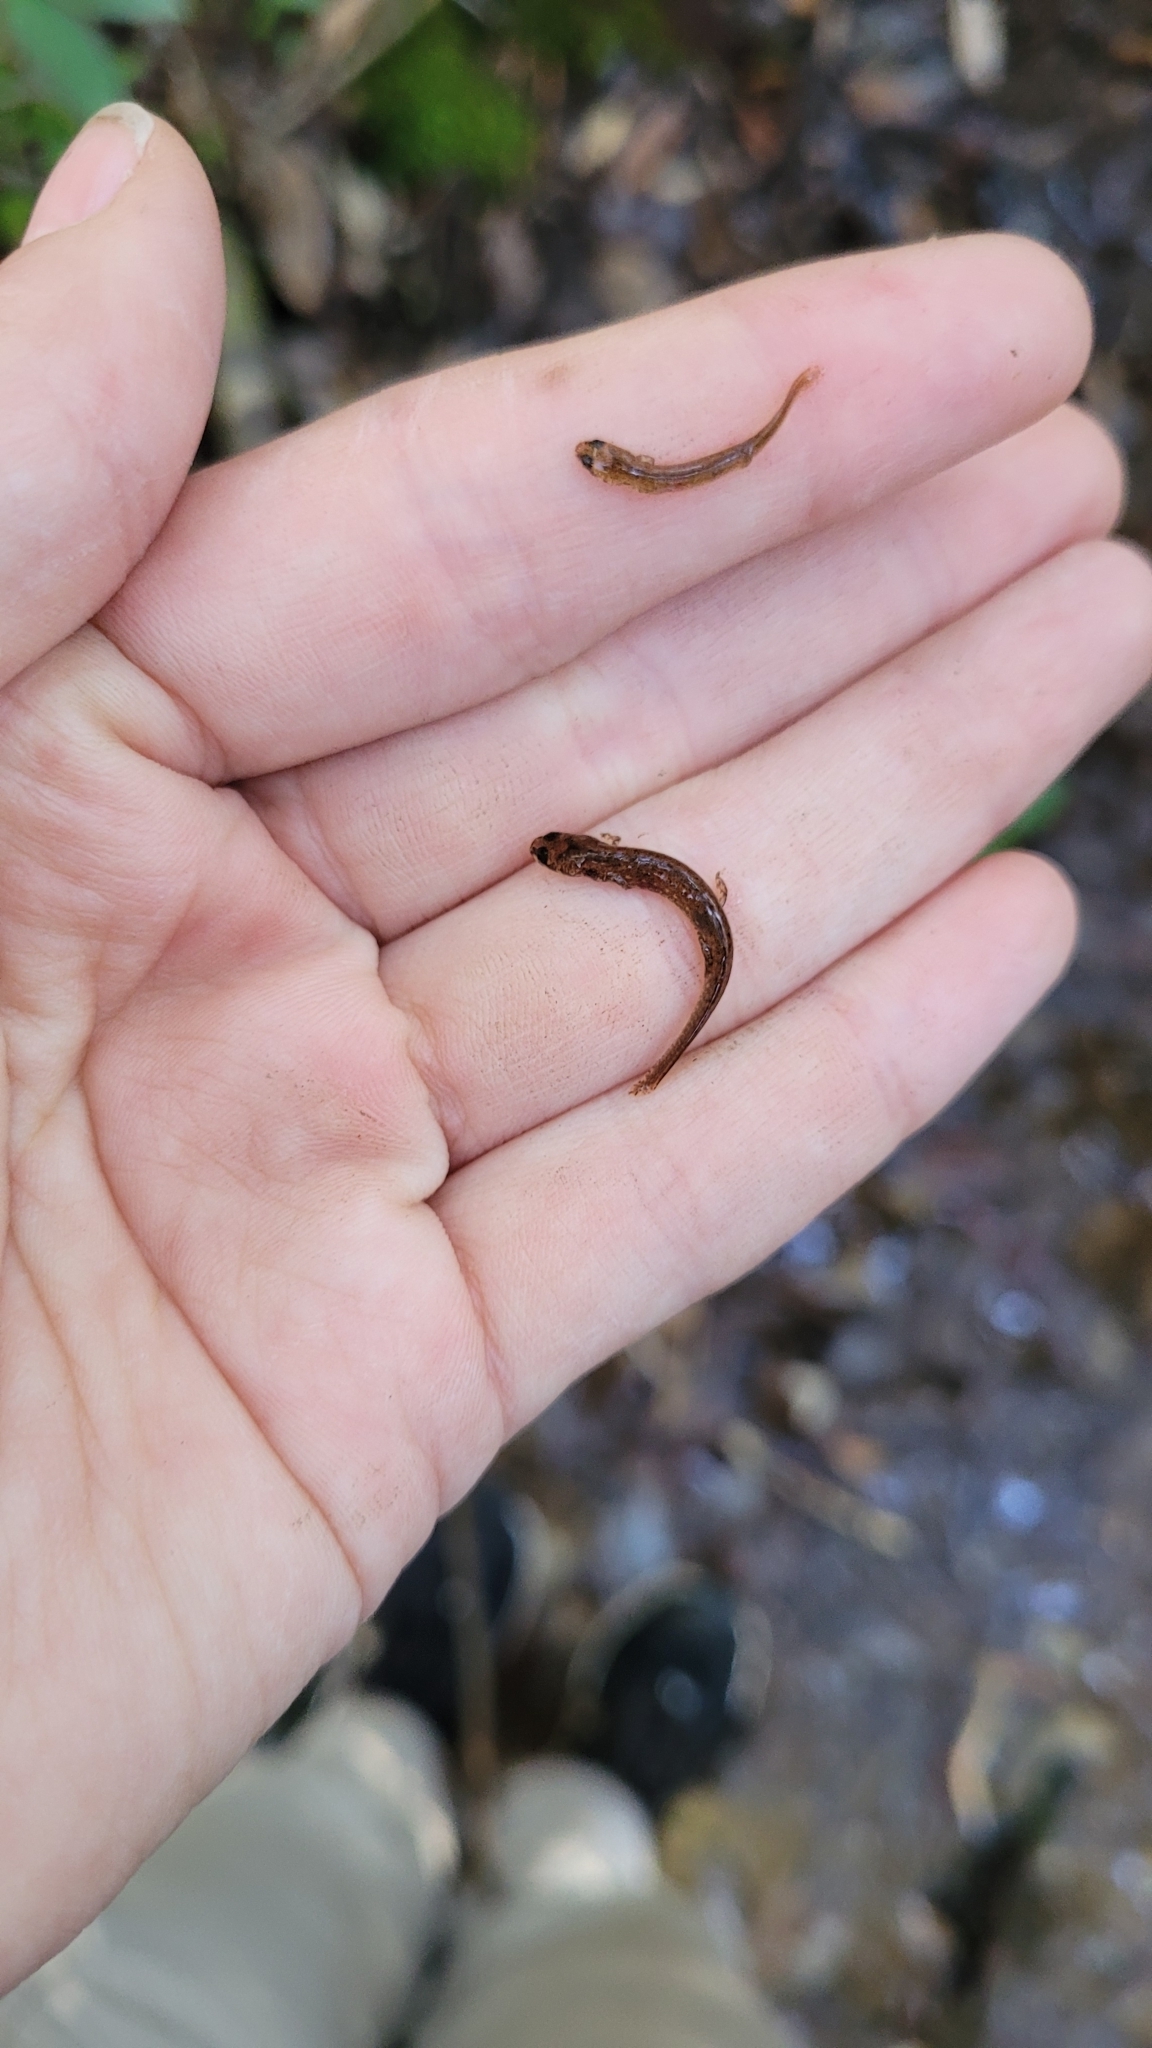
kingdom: Animalia
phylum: Chordata
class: Amphibia
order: Caudata
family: Plethodontidae
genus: Eurycea
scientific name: Eurycea cirrigera
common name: Southern two-lined salamander
